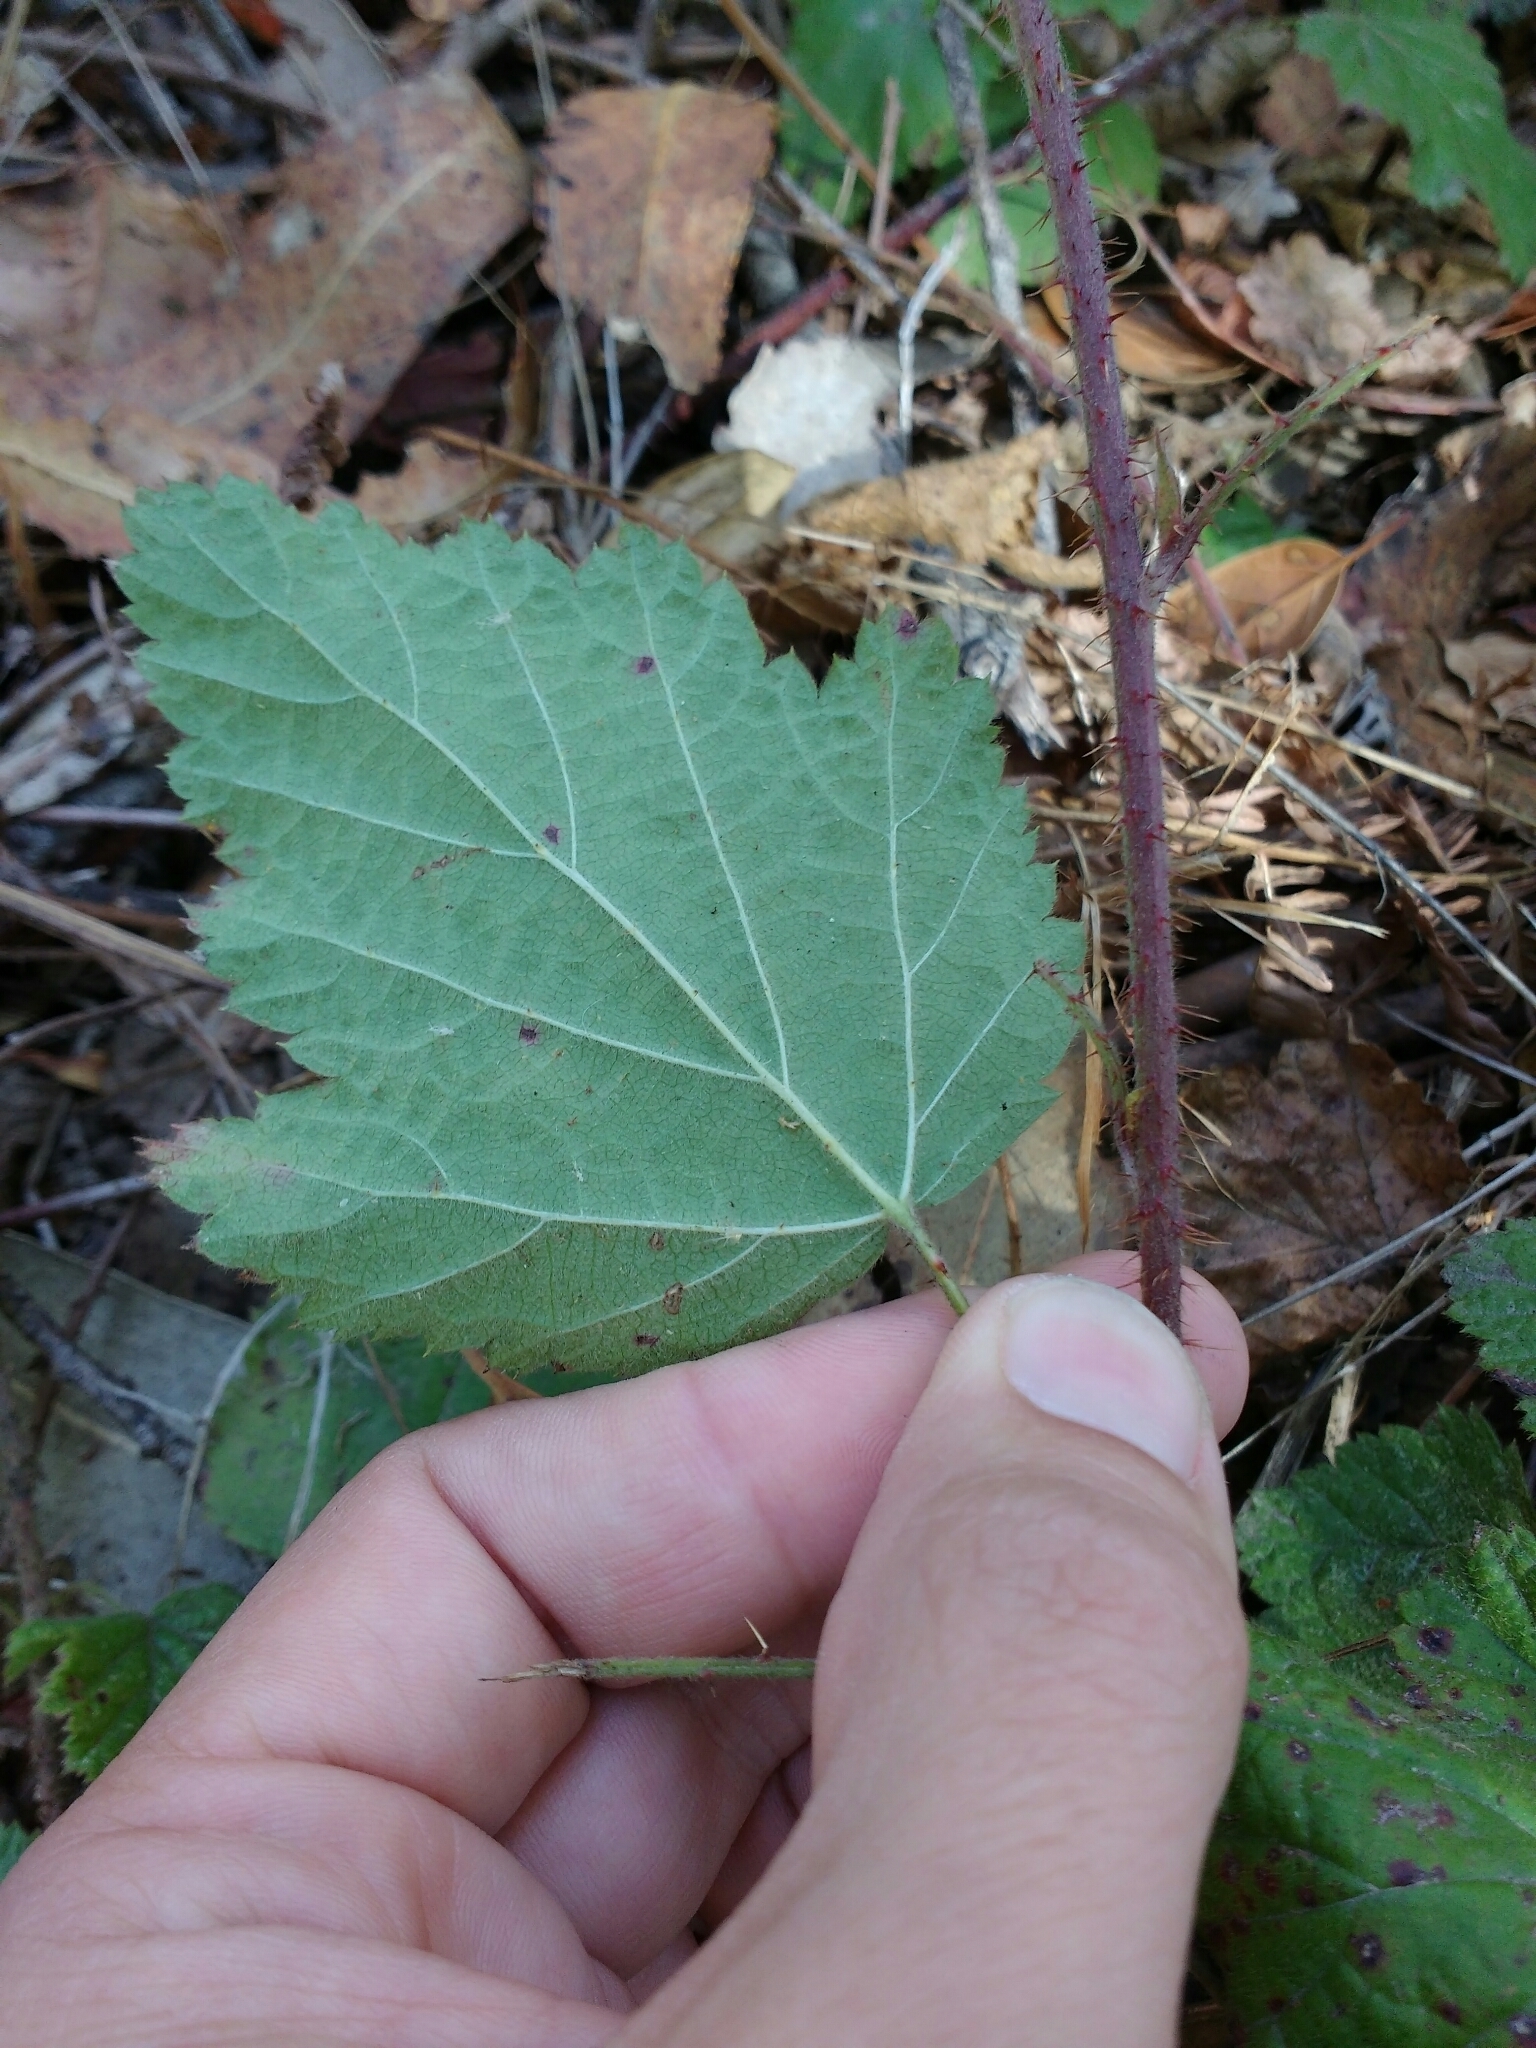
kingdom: Plantae
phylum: Tracheophyta
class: Magnoliopsida
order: Rosales
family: Rosaceae
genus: Rubus
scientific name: Rubus ursinus
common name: Pacific blackberry
